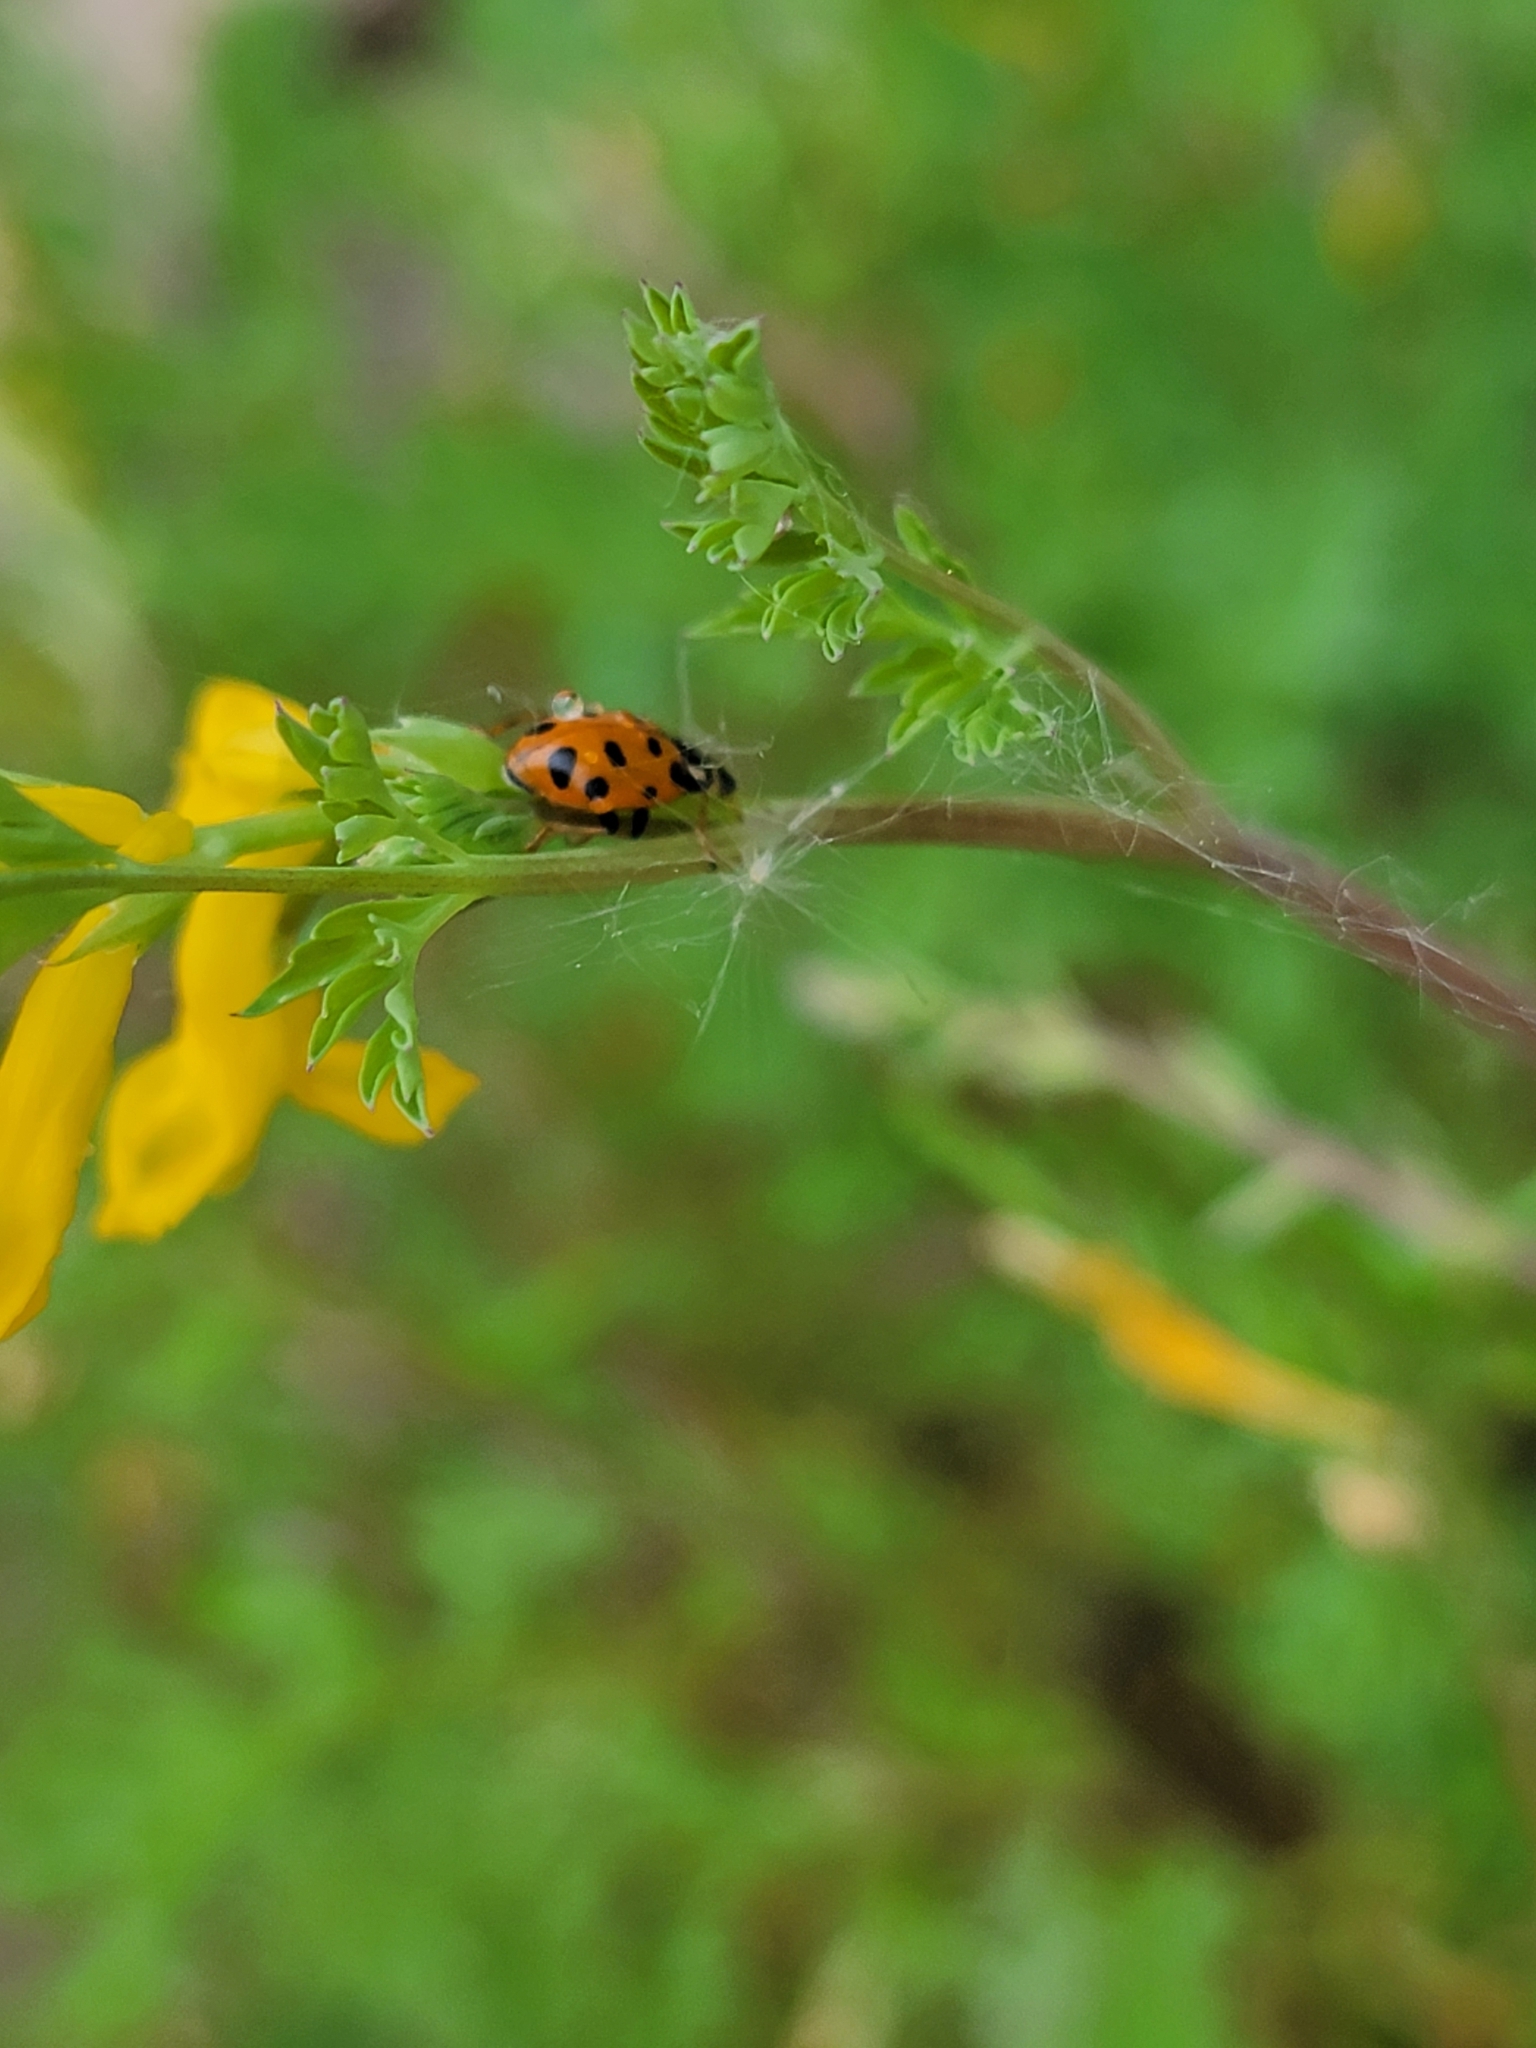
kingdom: Animalia
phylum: Arthropoda
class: Insecta
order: Coleoptera
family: Coccinellidae
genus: Hippodamia
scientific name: Hippodamia tredecimpunctata
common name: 13-spot ladybird
